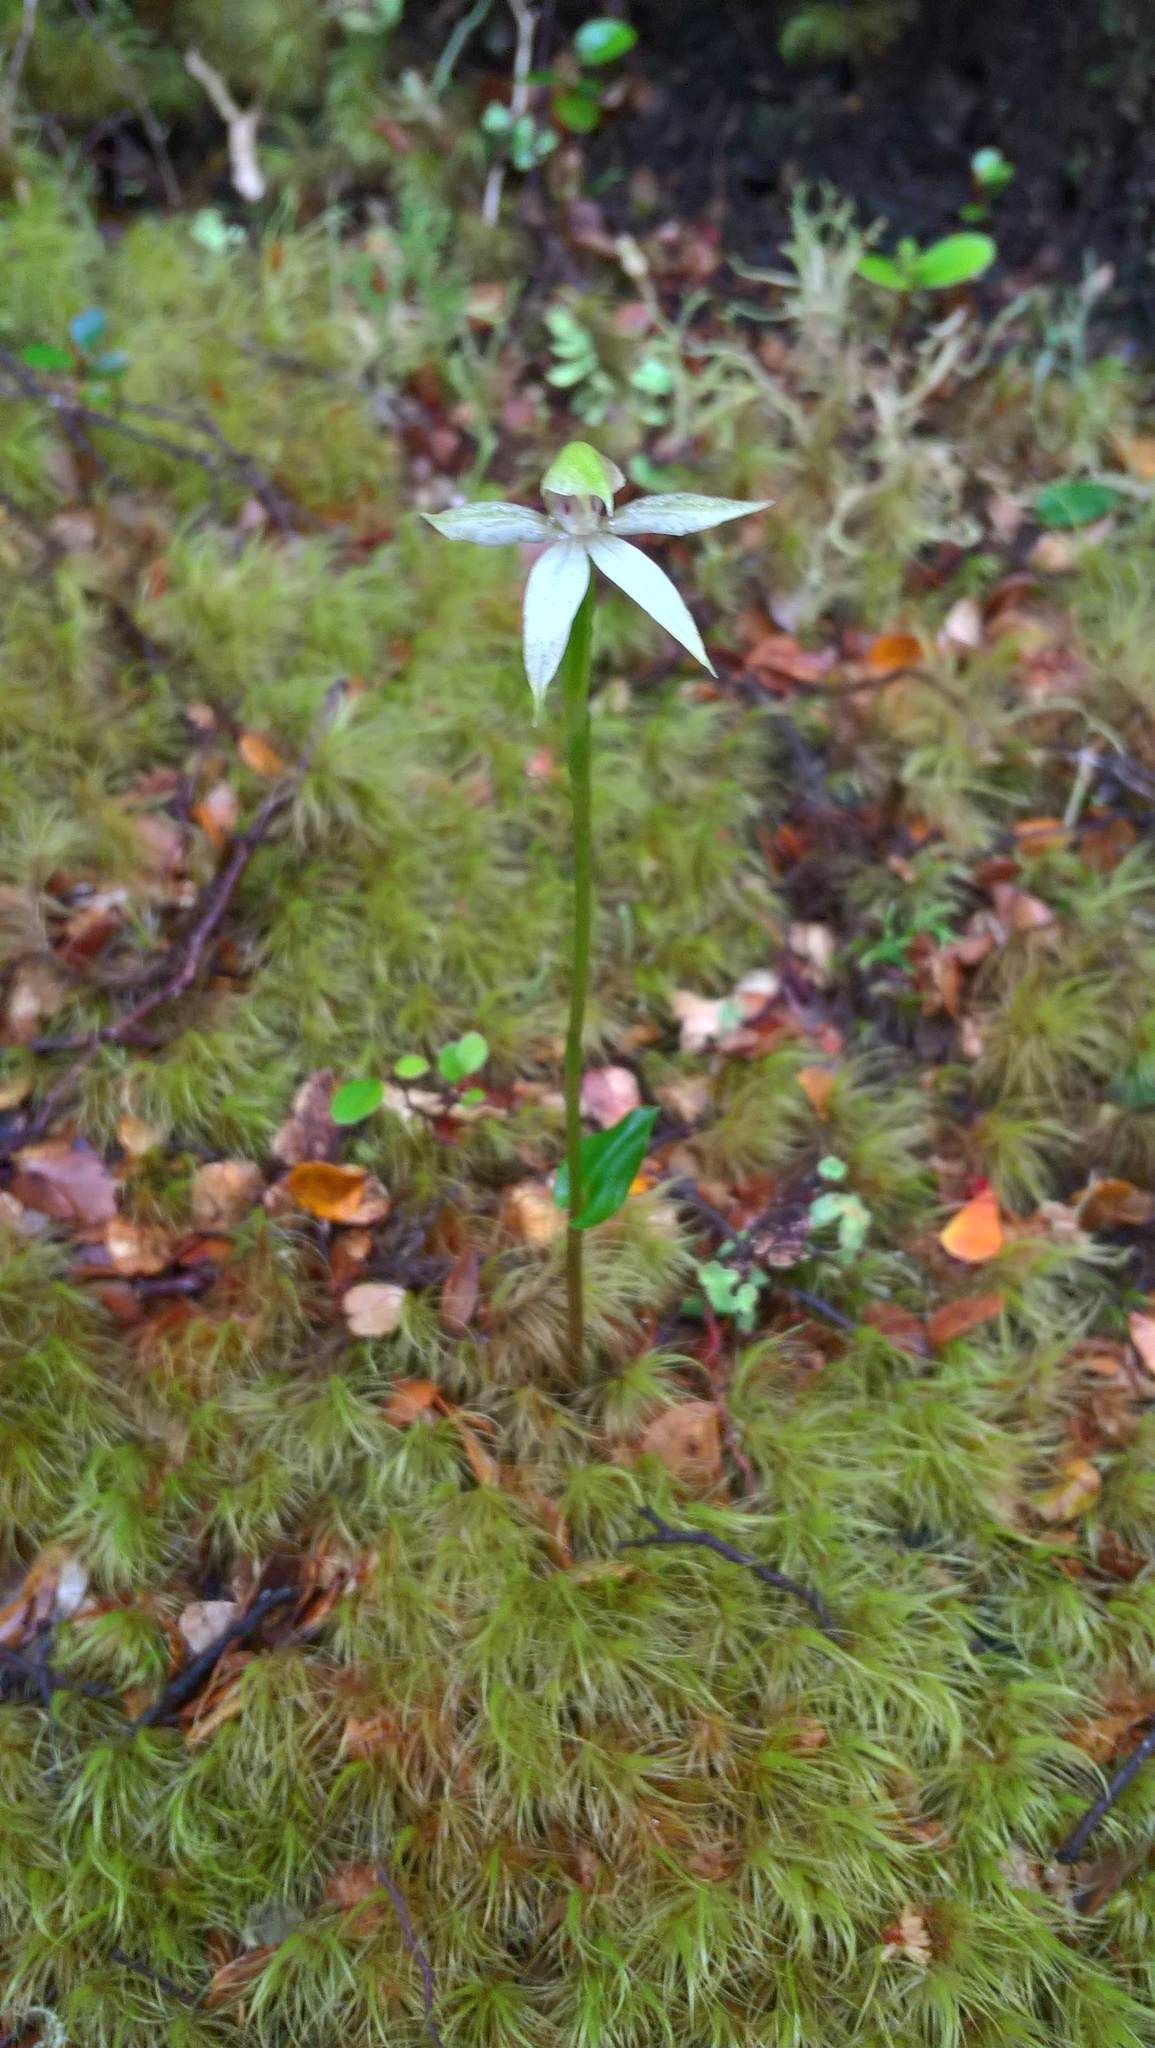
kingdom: Plantae
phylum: Tracheophyta
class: Liliopsida
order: Asparagales
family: Orchidaceae
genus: Adenochilus
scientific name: Adenochilus gracilis
